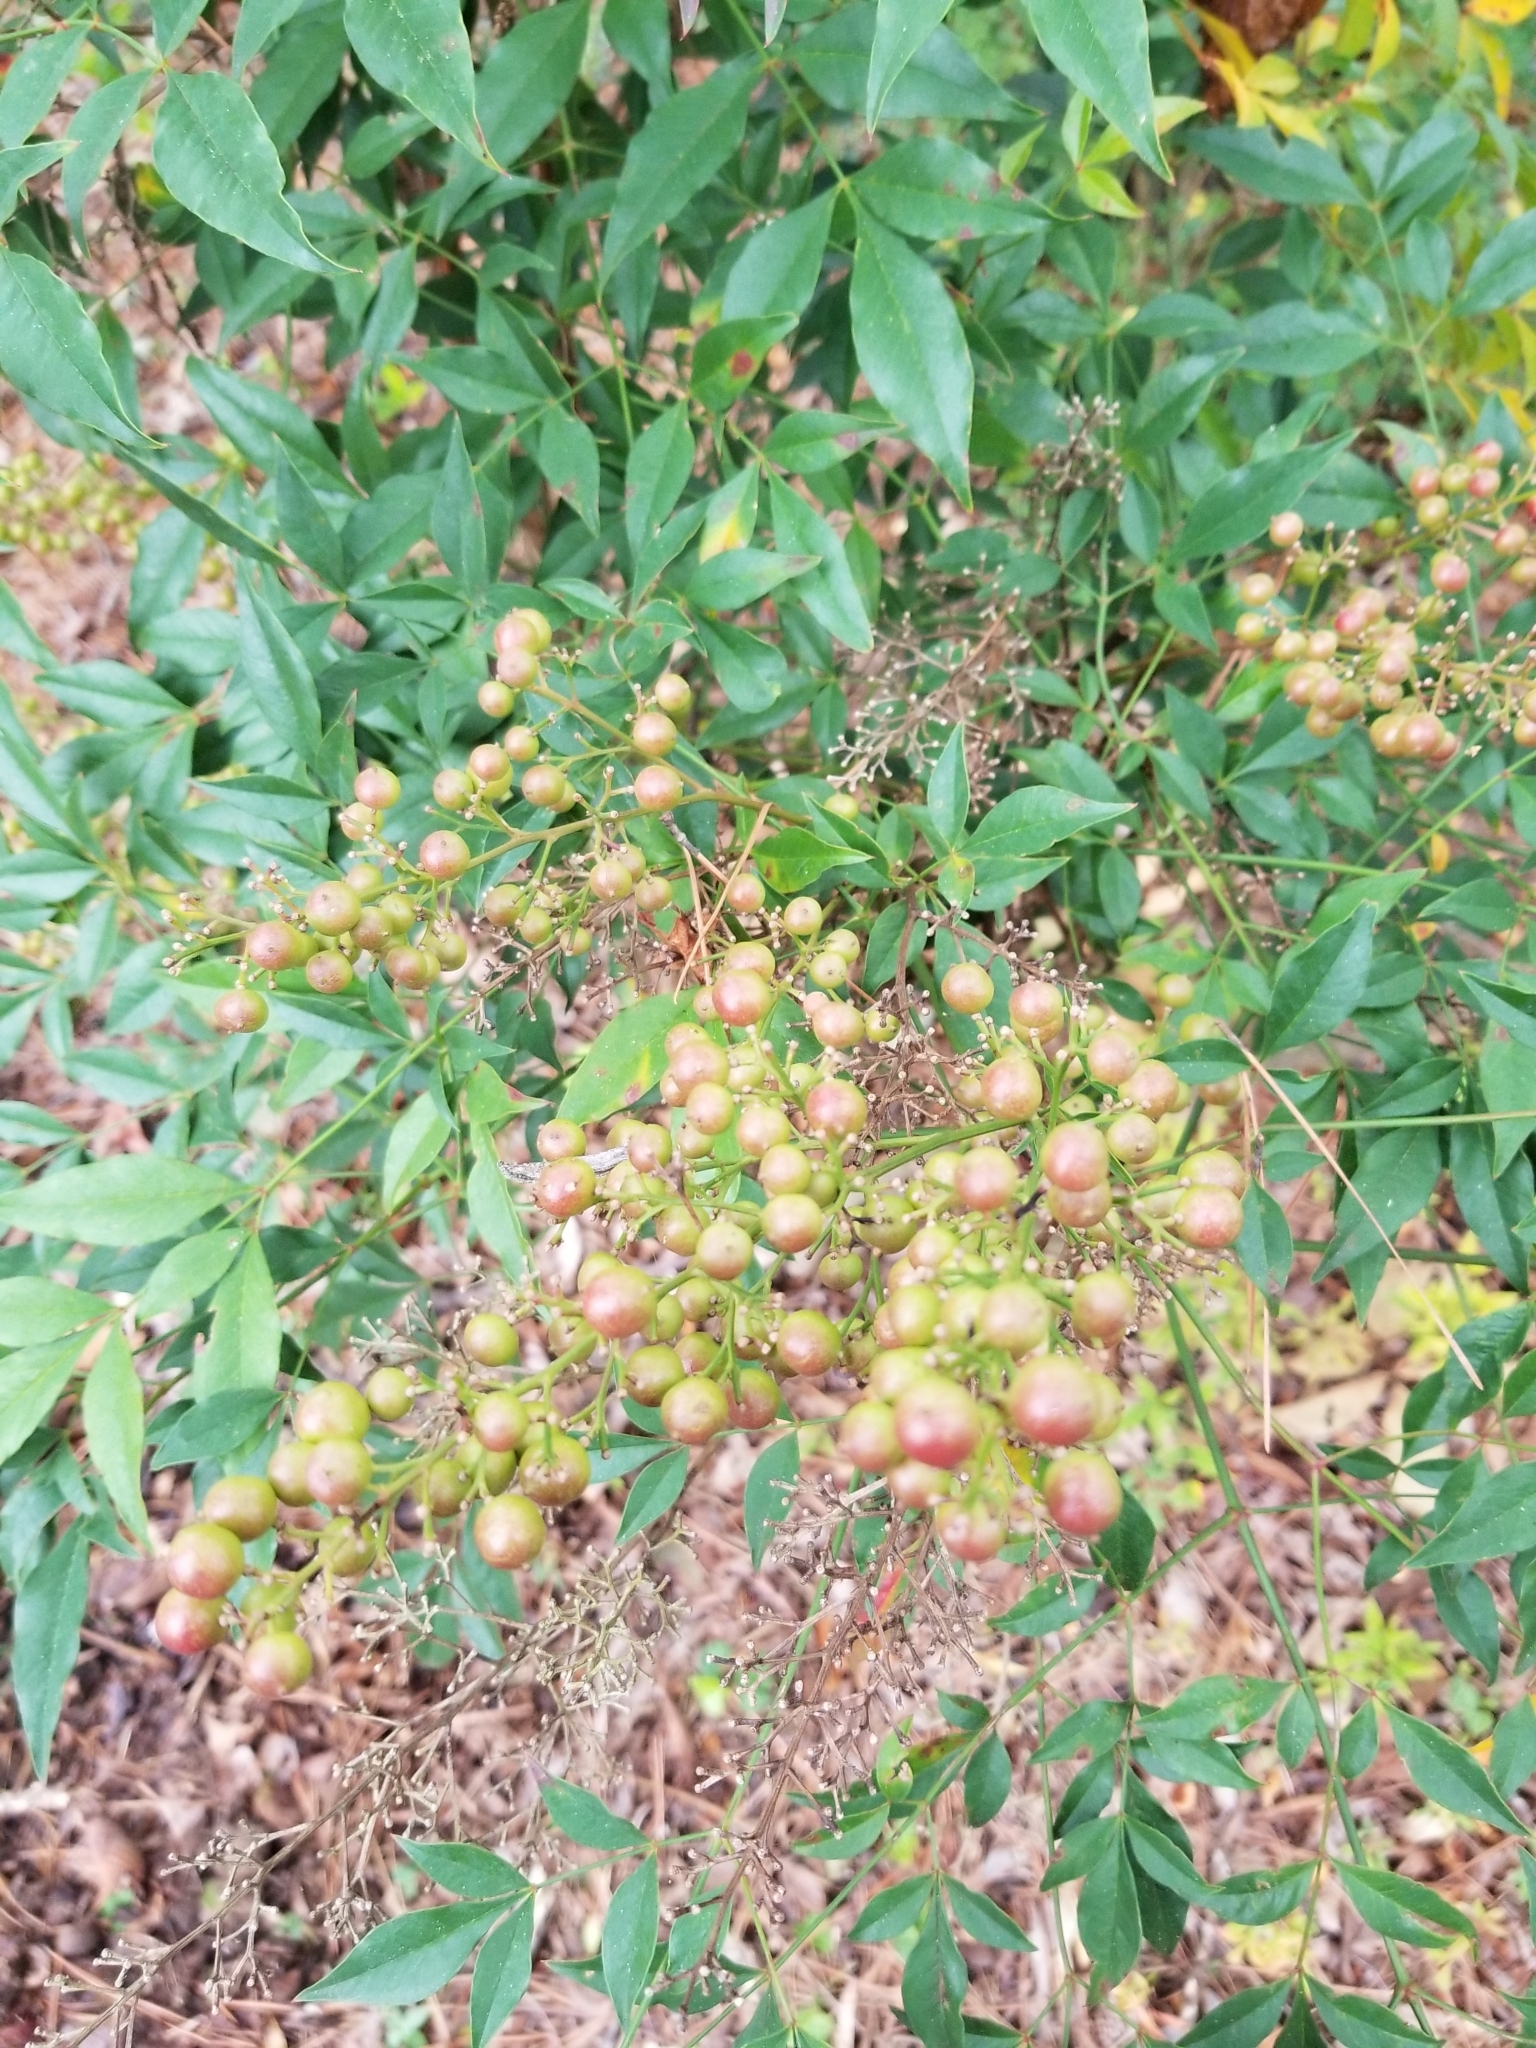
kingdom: Plantae
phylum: Tracheophyta
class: Magnoliopsida
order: Ranunculales
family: Berberidaceae
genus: Nandina
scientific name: Nandina domestica
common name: Sacred bamboo
